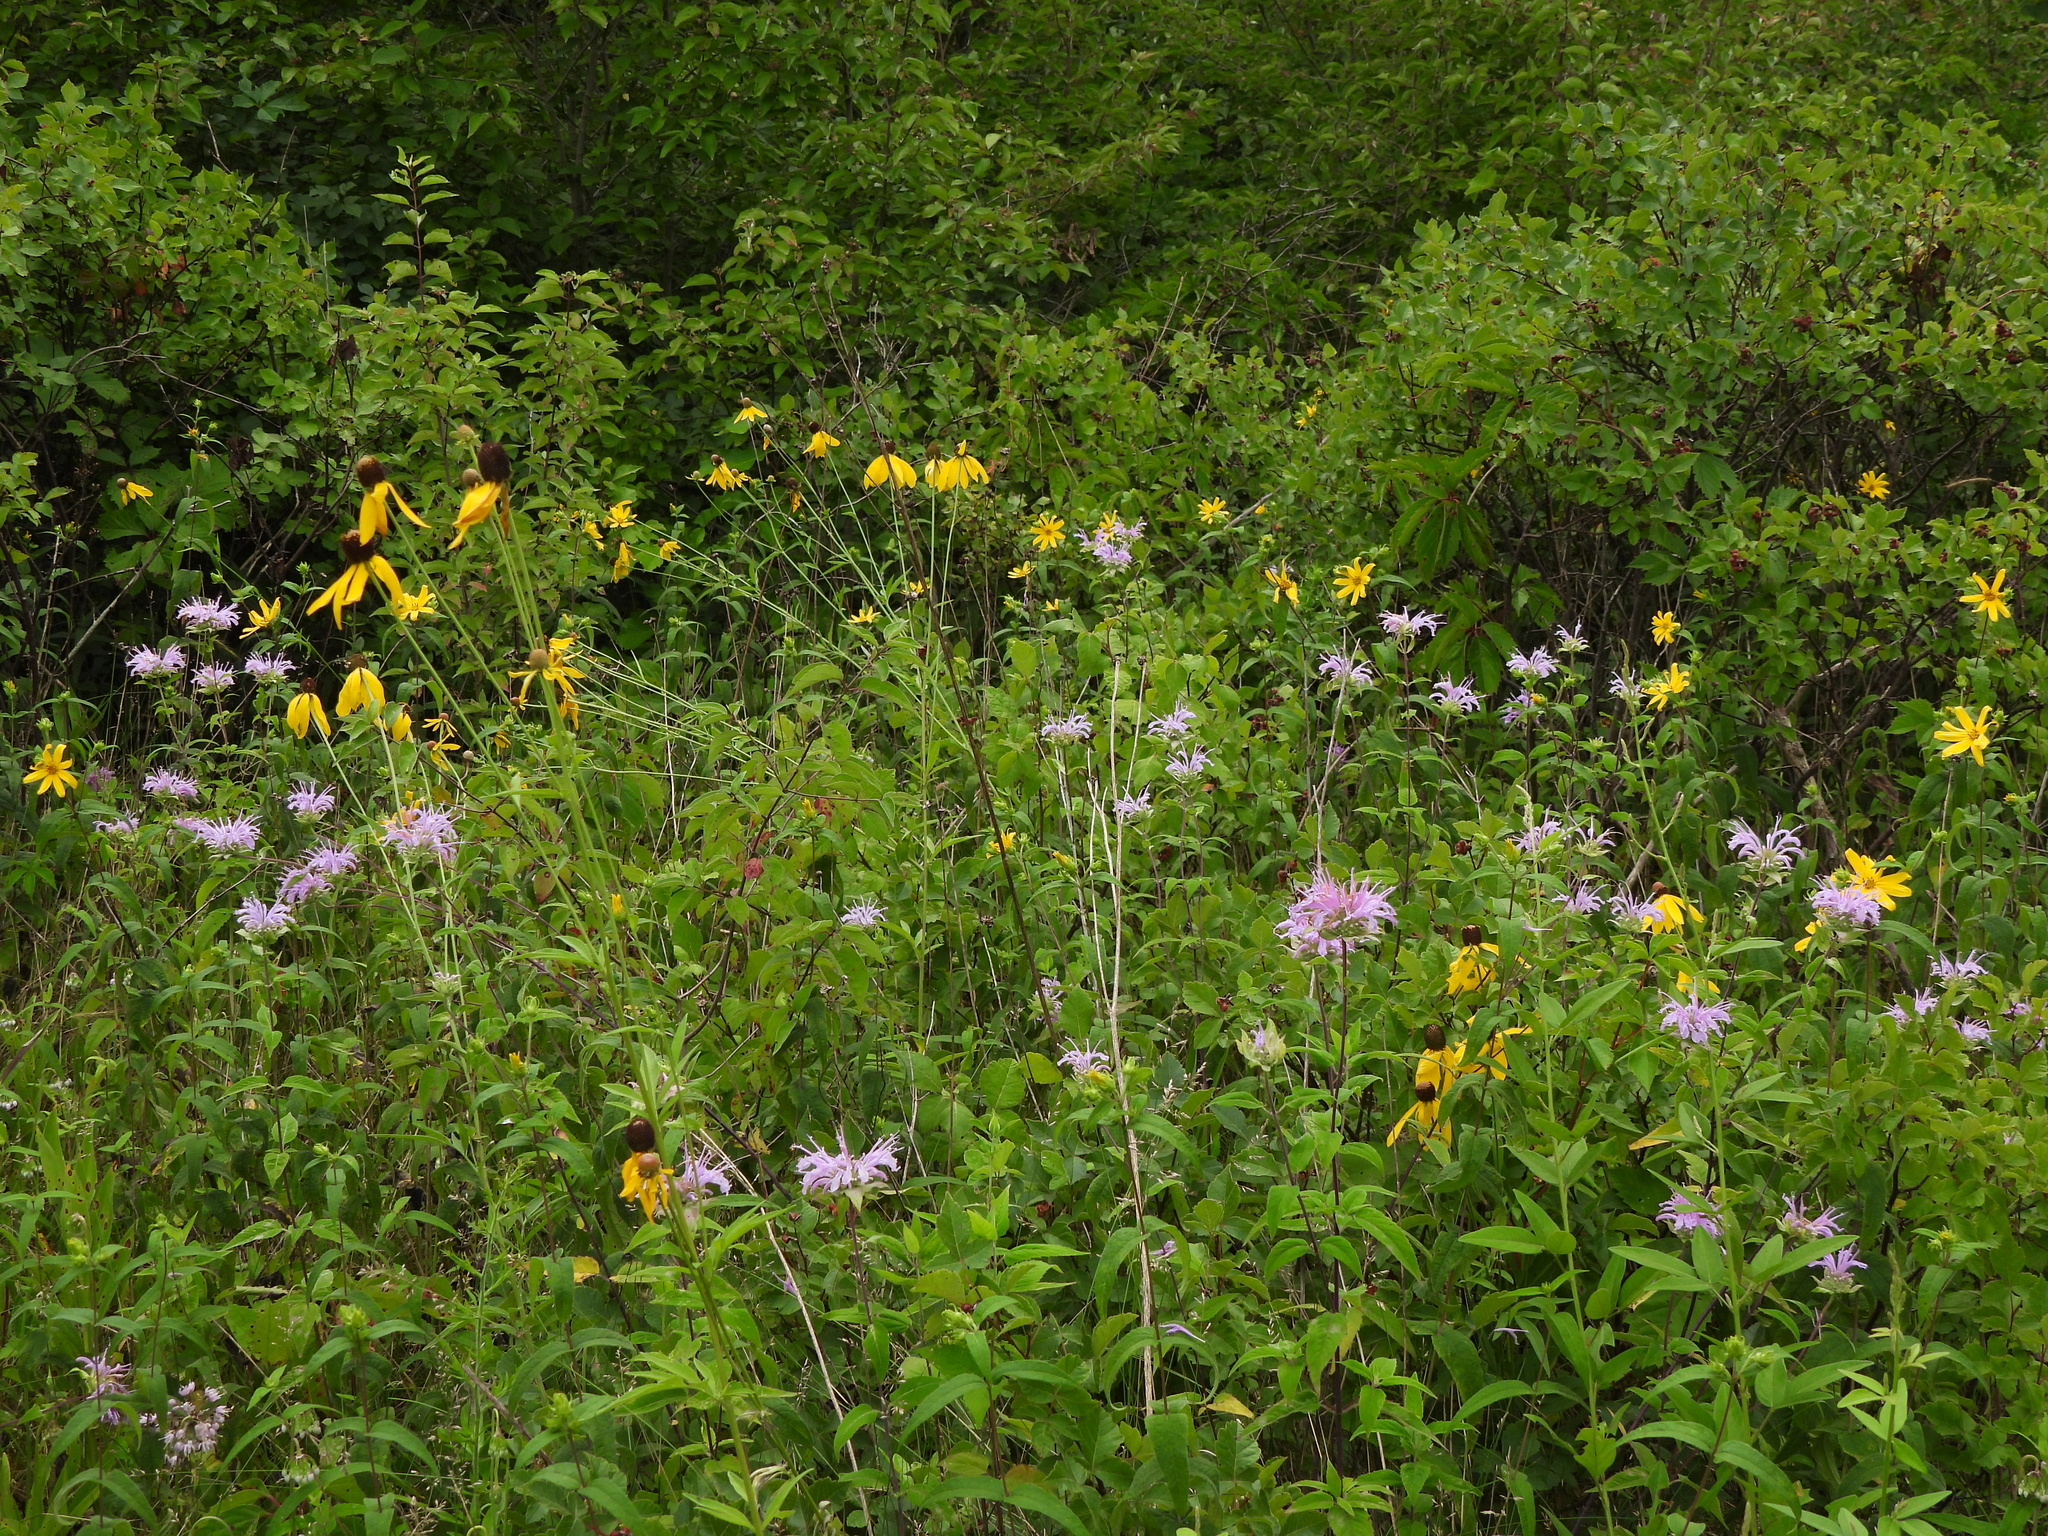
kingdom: Plantae
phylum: Tracheophyta
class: Magnoliopsida
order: Asterales
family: Asteraceae
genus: Ratibida
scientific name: Ratibida pinnata
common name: Drooping prairie-coneflower
